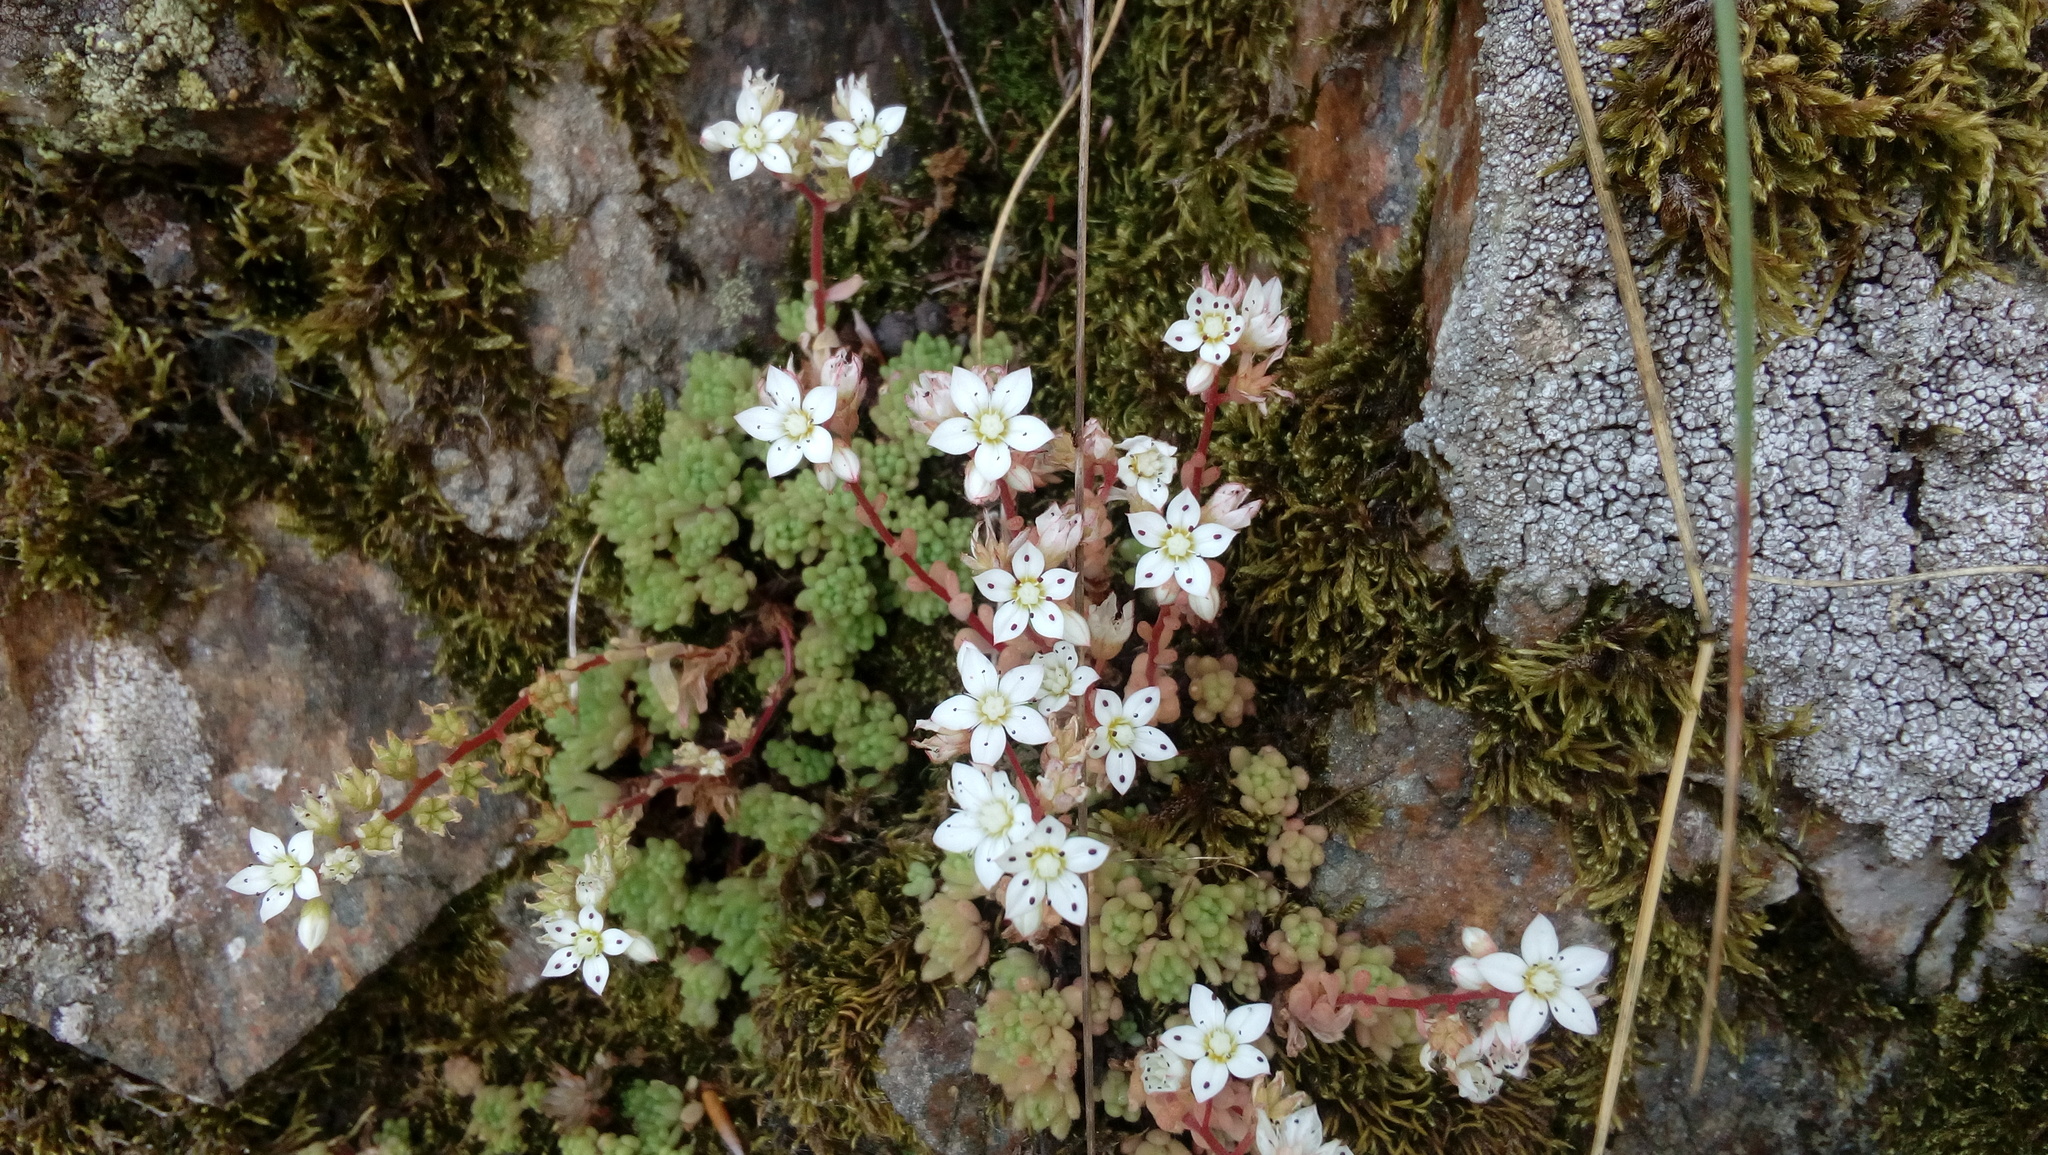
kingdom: Plantae
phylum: Tracheophyta
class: Magnoliopsida
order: Saxifragales
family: Crassulaceae
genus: Sedum
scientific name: Sedum hirsutum
